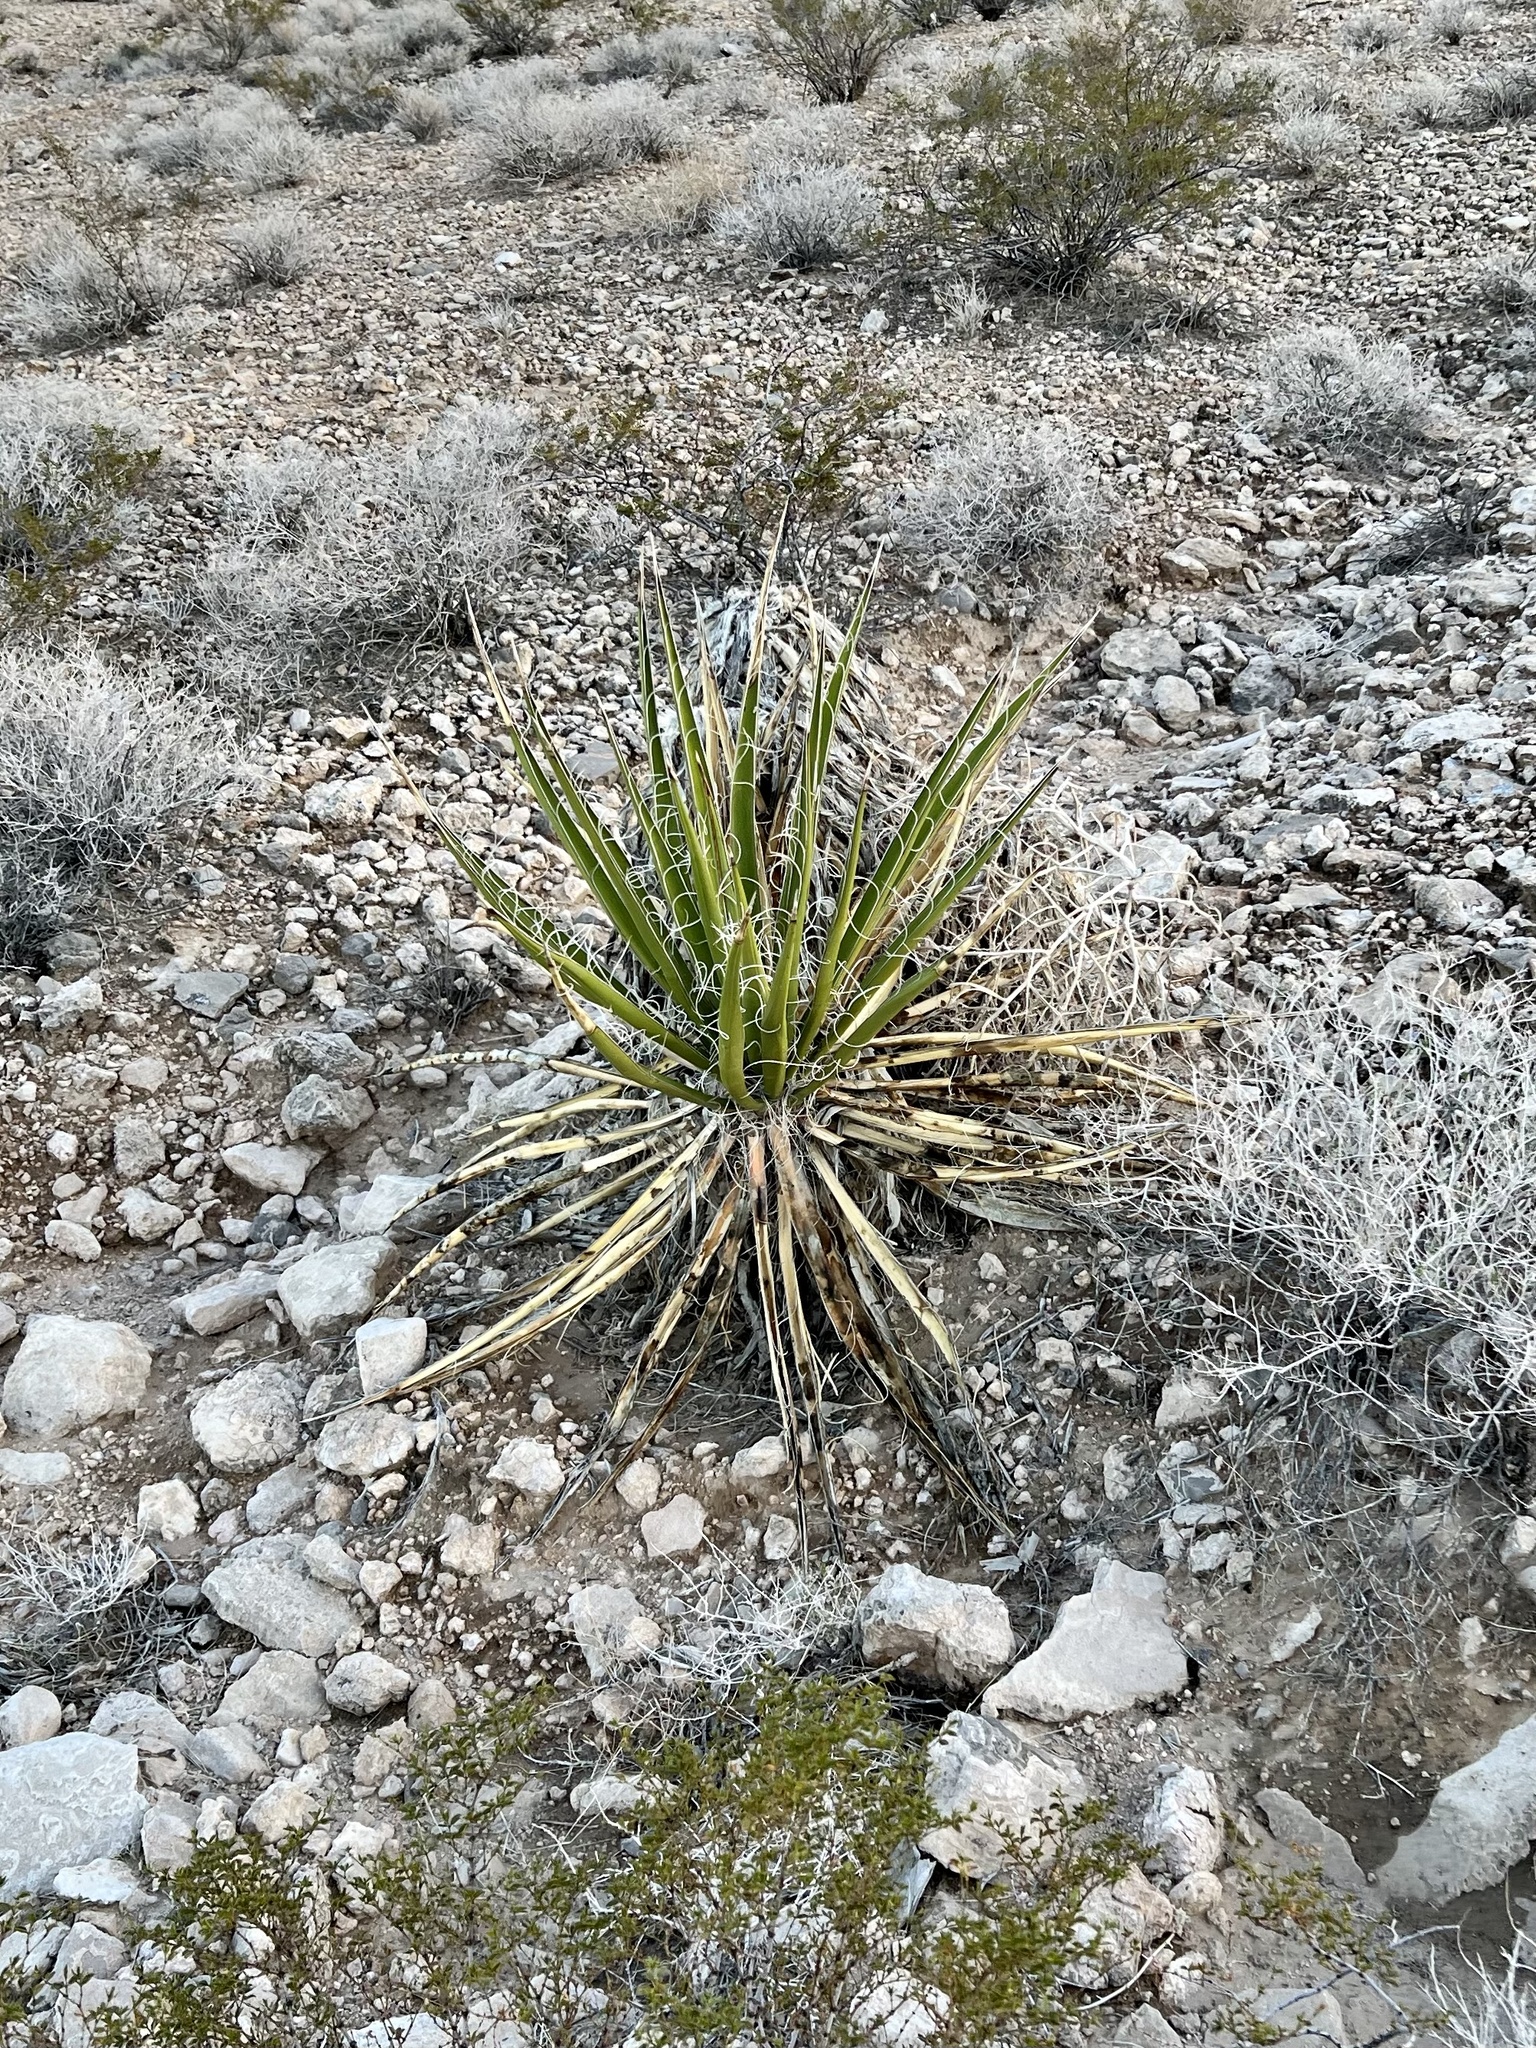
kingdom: Plantae
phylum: Tracheophyta
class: Liliopsida
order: Asparagales
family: Asparagaceae
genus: Yucca
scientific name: Yucca baccata
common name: Banana yucca
